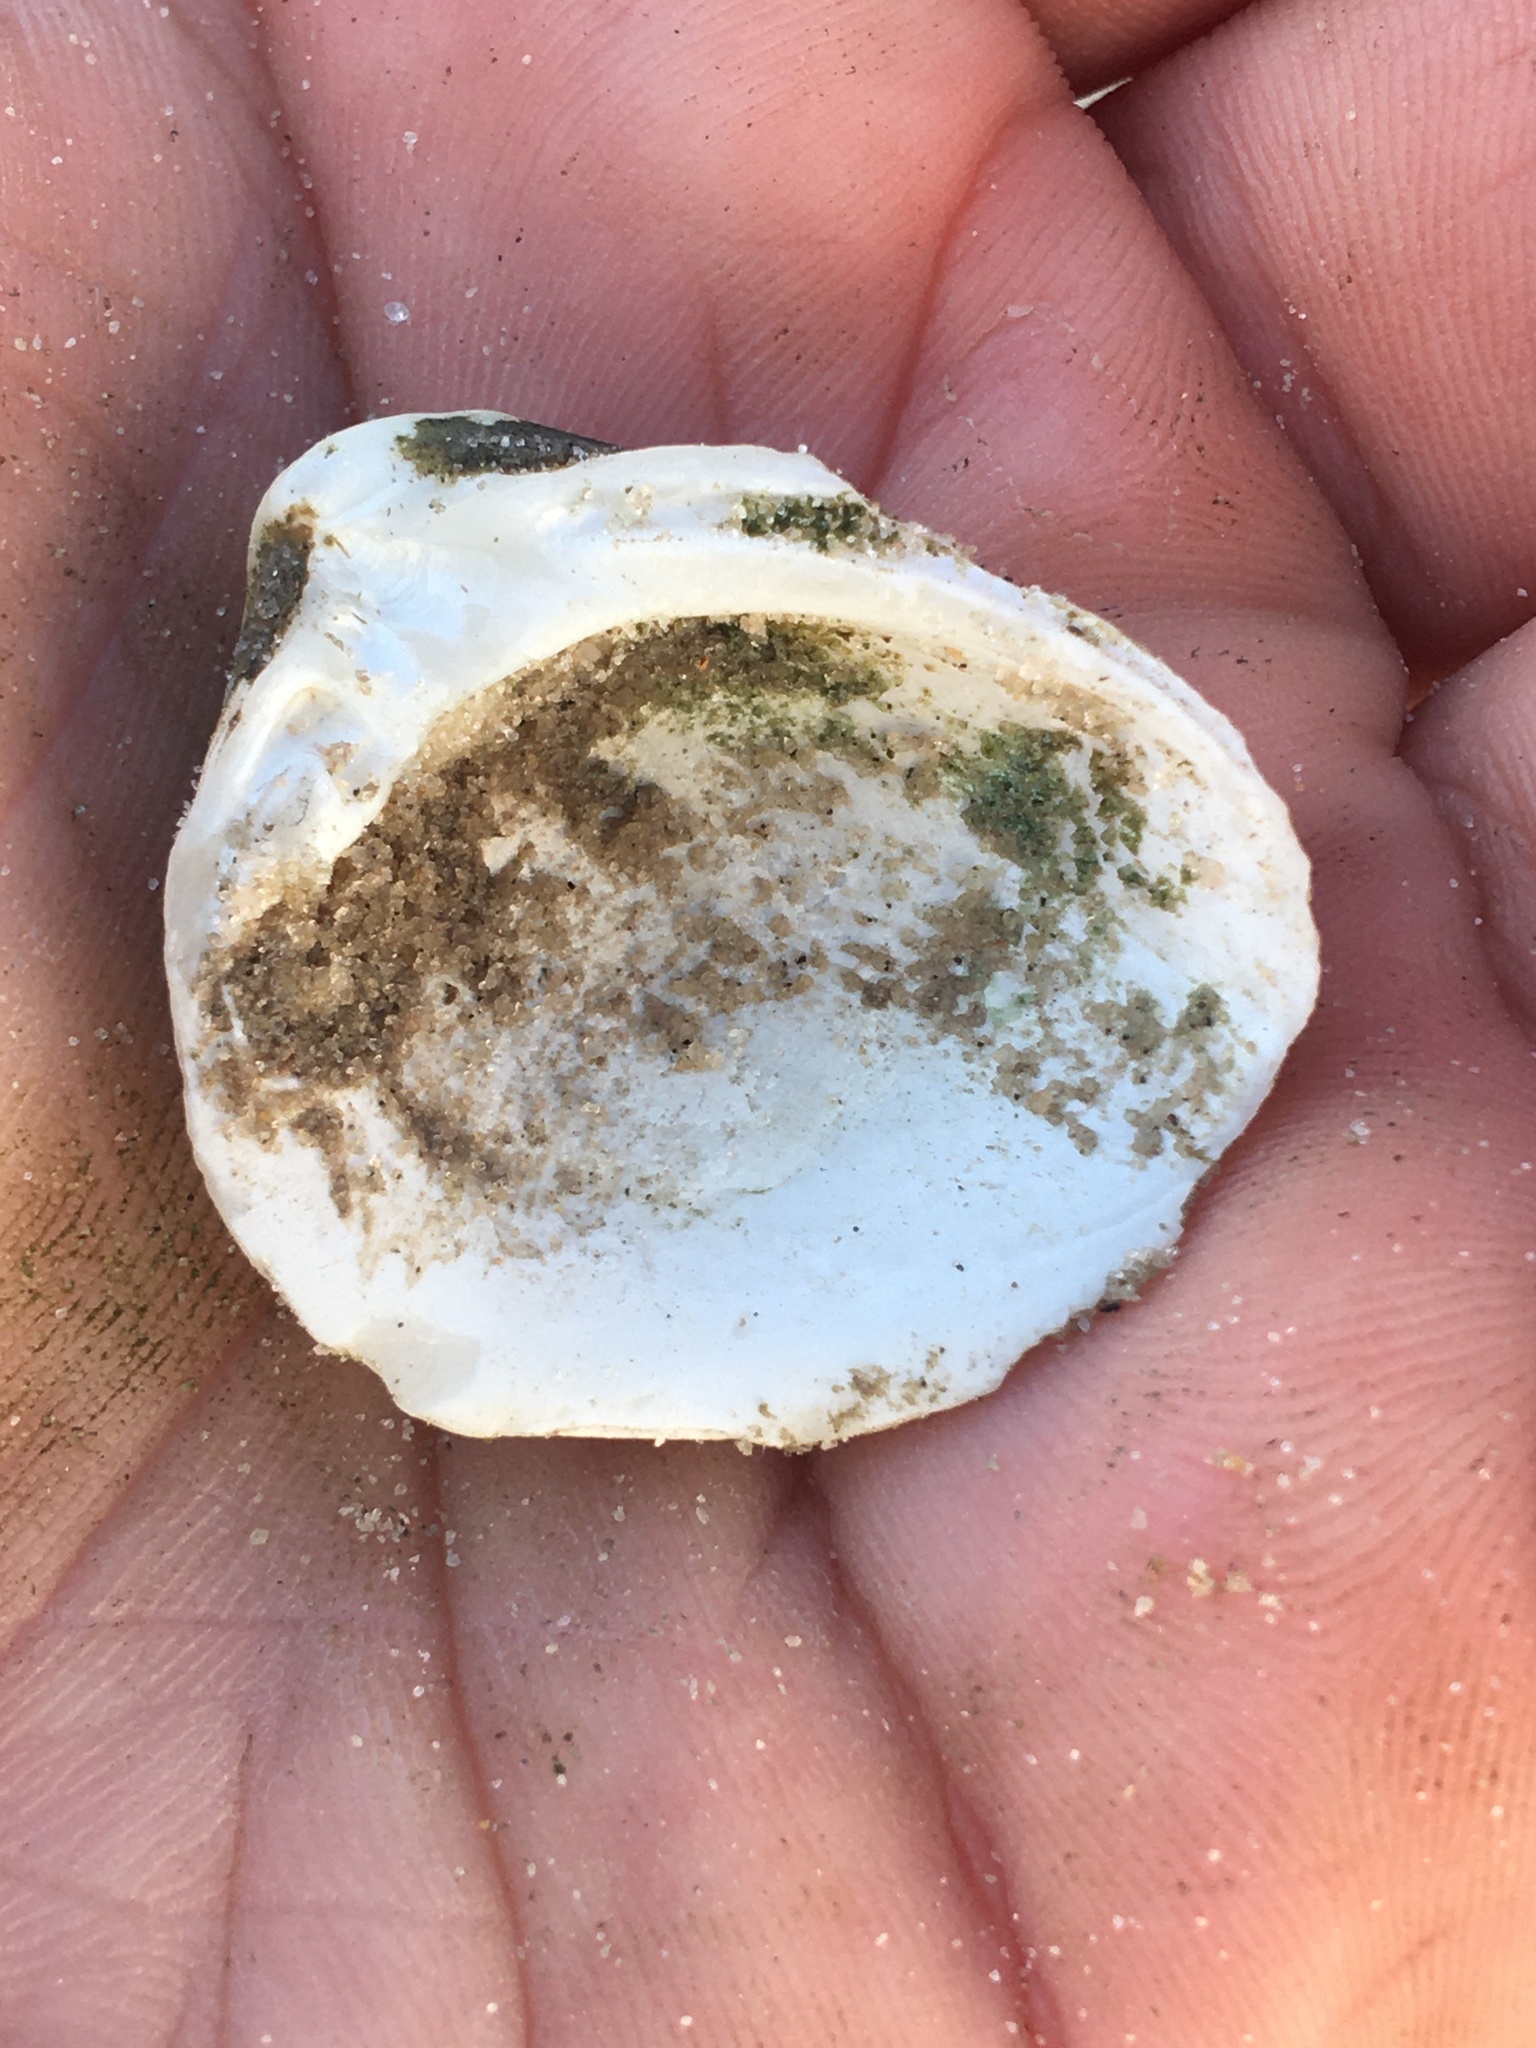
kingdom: Animalia
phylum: Mollusca
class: Bivalvia
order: Venerida
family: Mactridae
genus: Rangia
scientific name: Rangia cuneata
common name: Atlantic rangia
